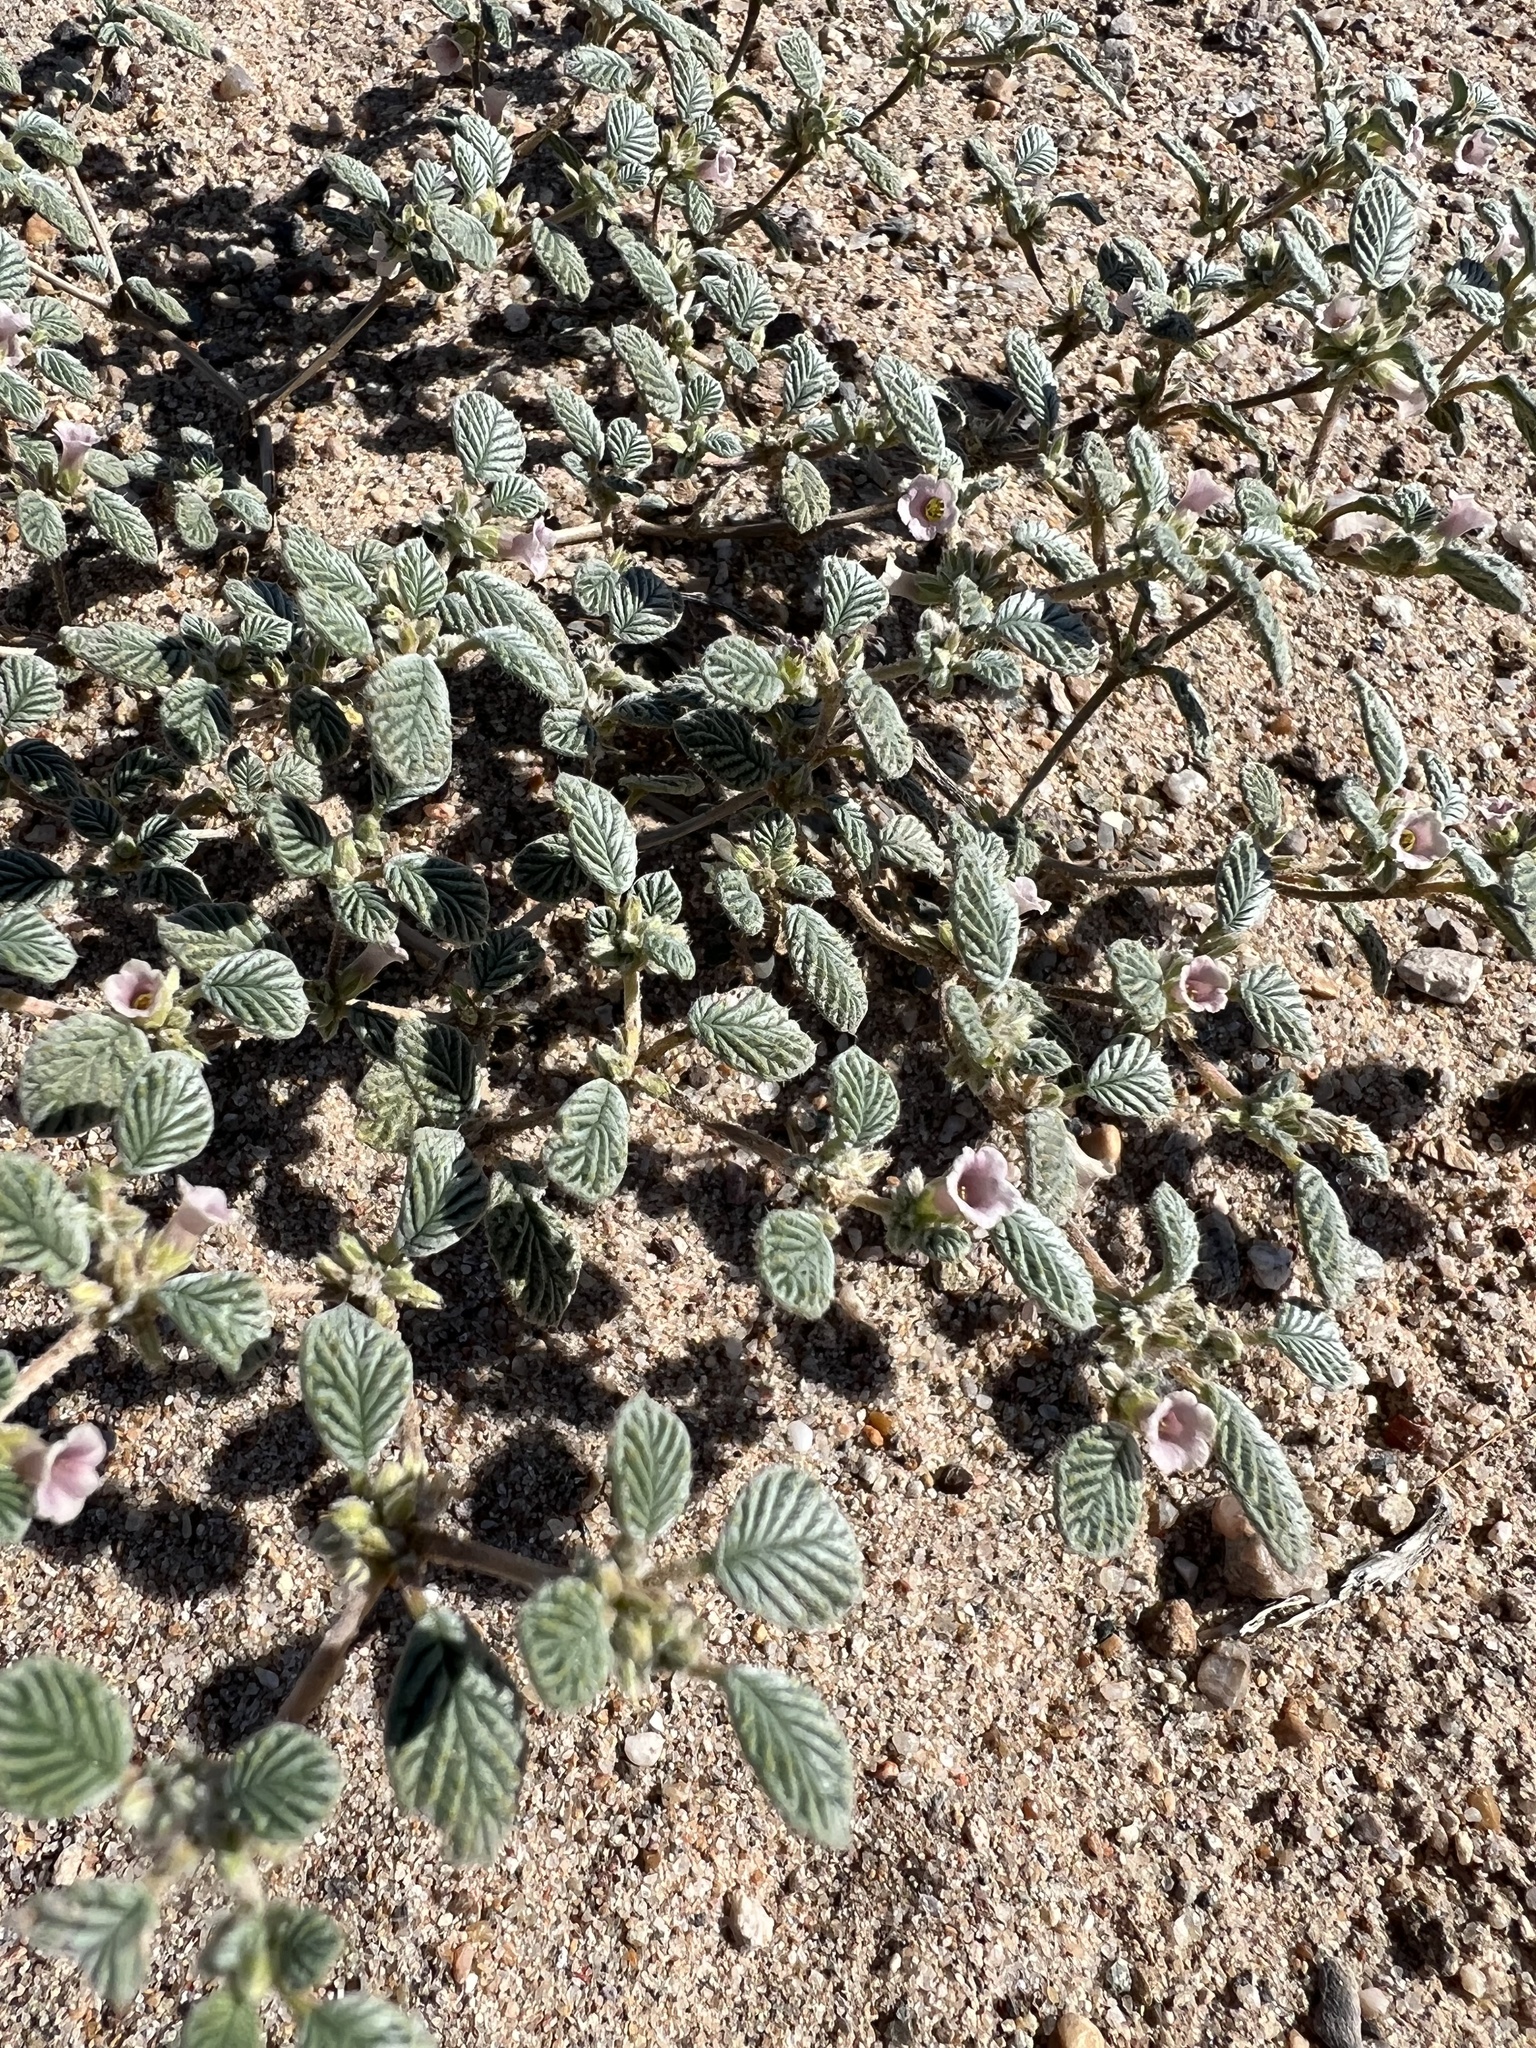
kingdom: Plantae
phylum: Tracheophyta
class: Magnoliopsida
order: Boraginales
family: Ehretiaceae
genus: Tiquilia
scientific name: Tiquilia plicata
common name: Fan-leaf tiquilia
